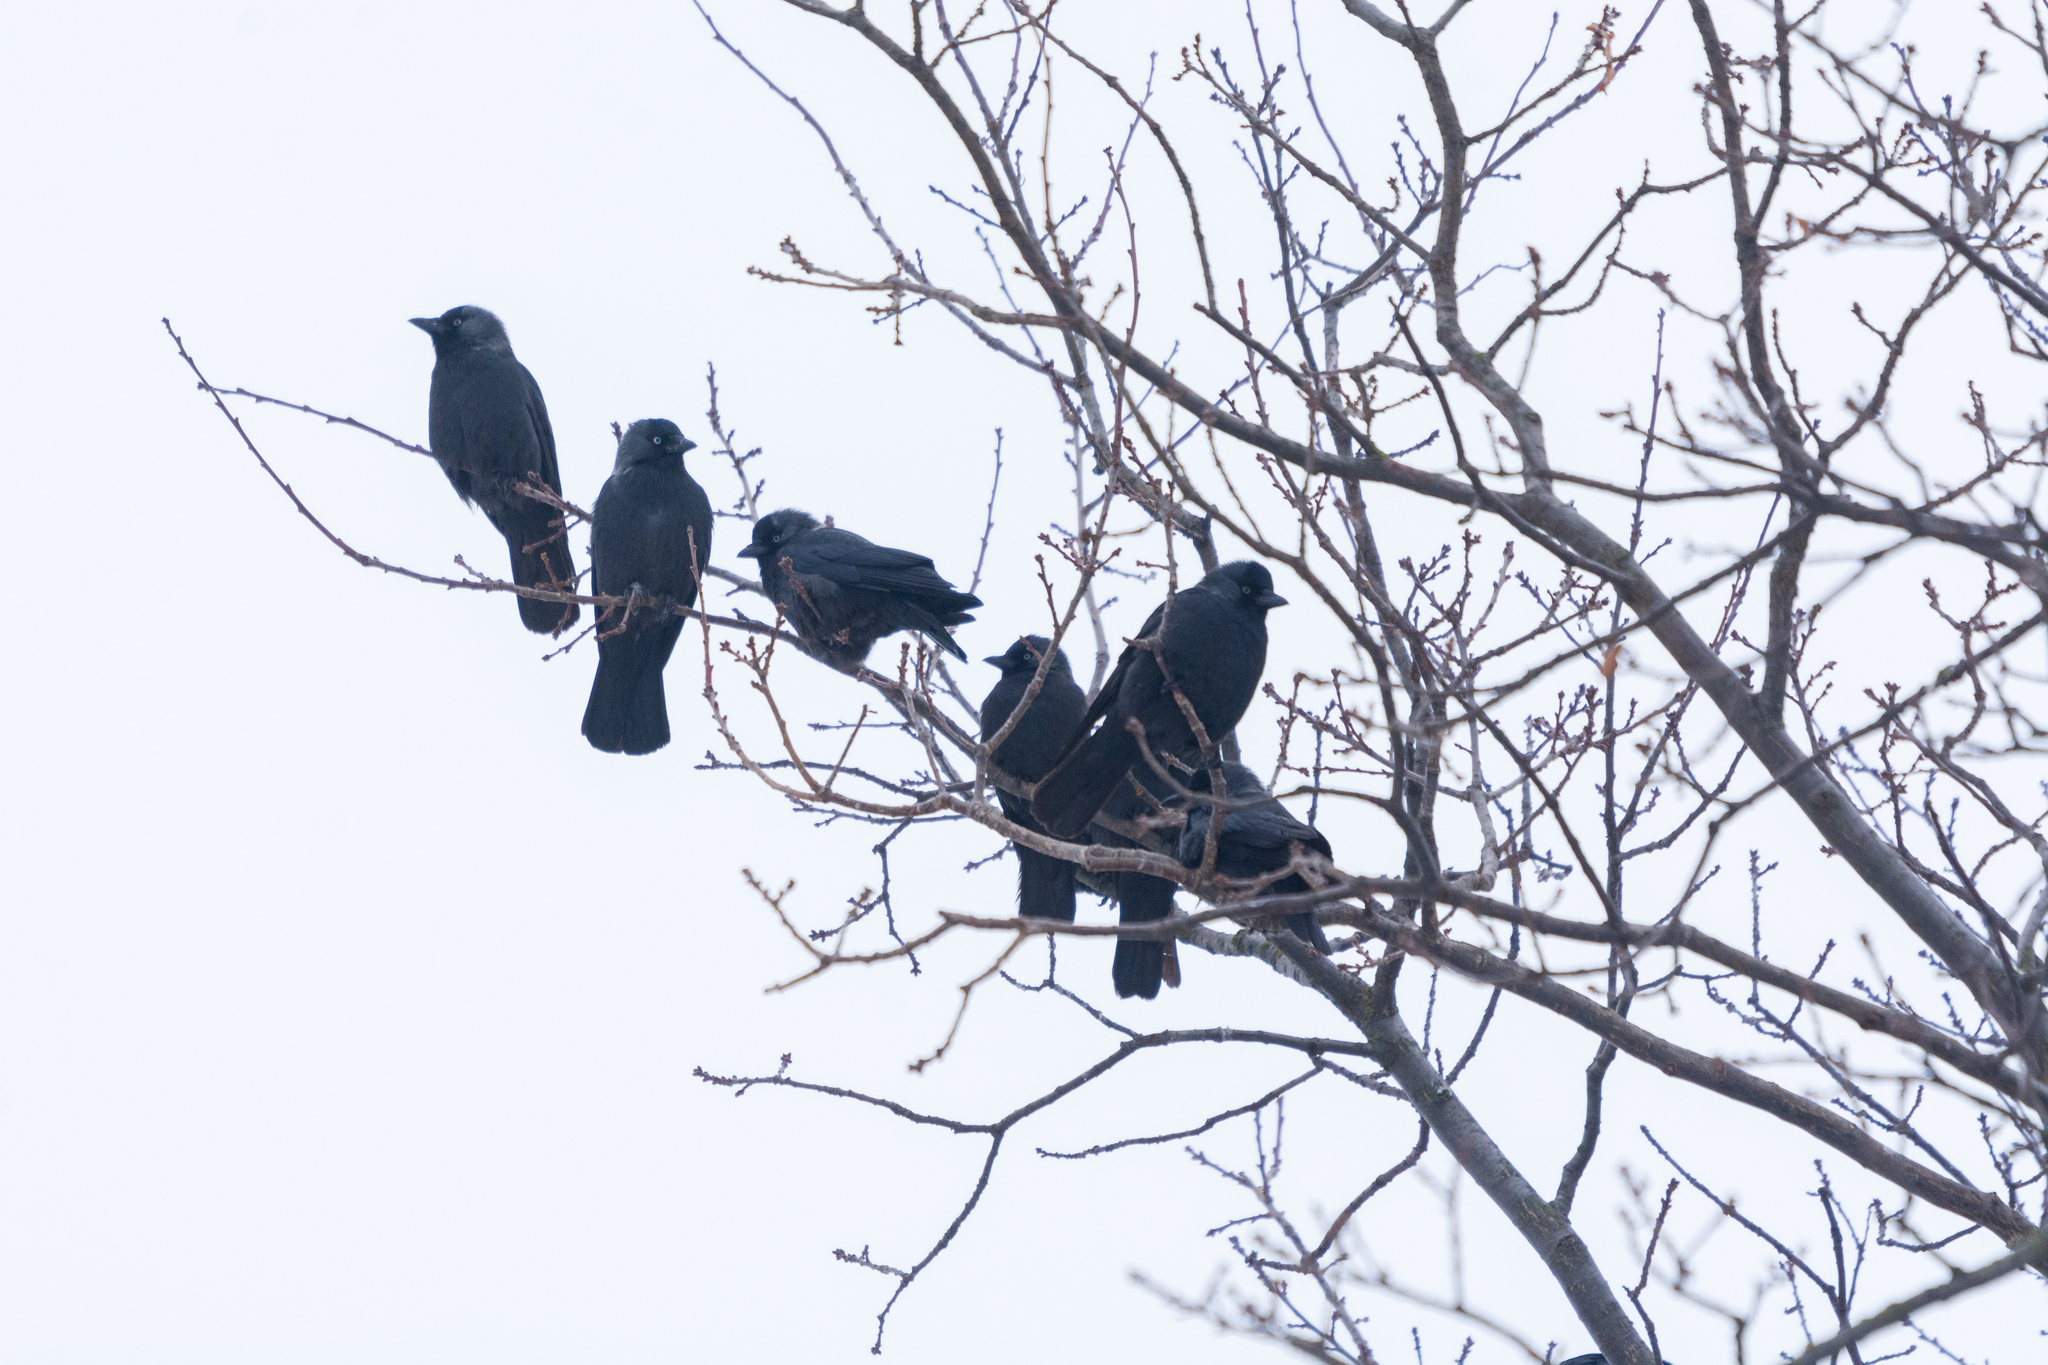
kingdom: Animalia
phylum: Chordata
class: Aves
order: Passeriformes
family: Corvidae
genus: Coloeus
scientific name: Coloeus monedula
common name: Western jackdaw
